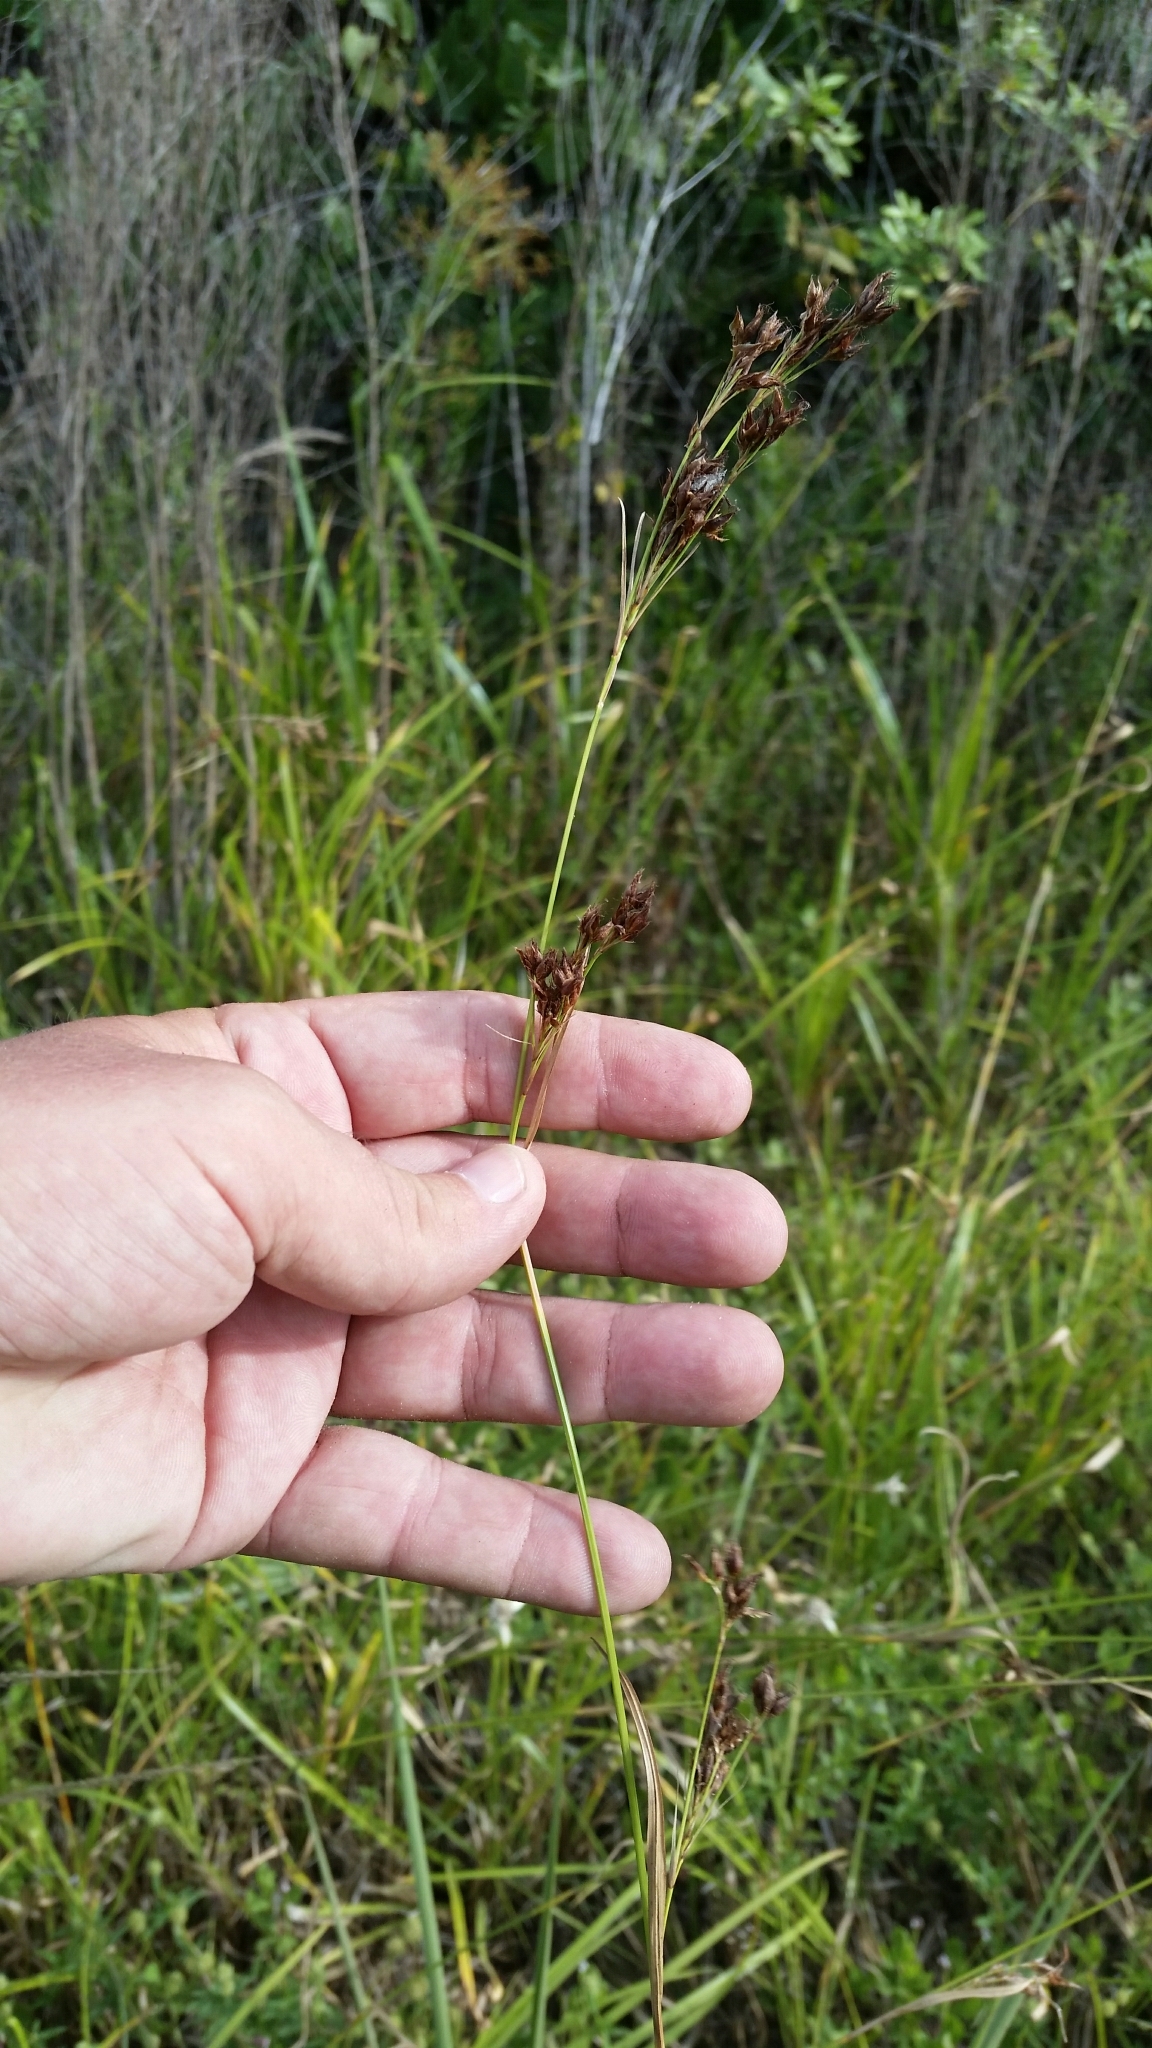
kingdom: Plantae
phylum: Tracheophyta
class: Liliopsida
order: Poales
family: Cyperaceae
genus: Rhynchospora
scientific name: Rhynchospora odorata
